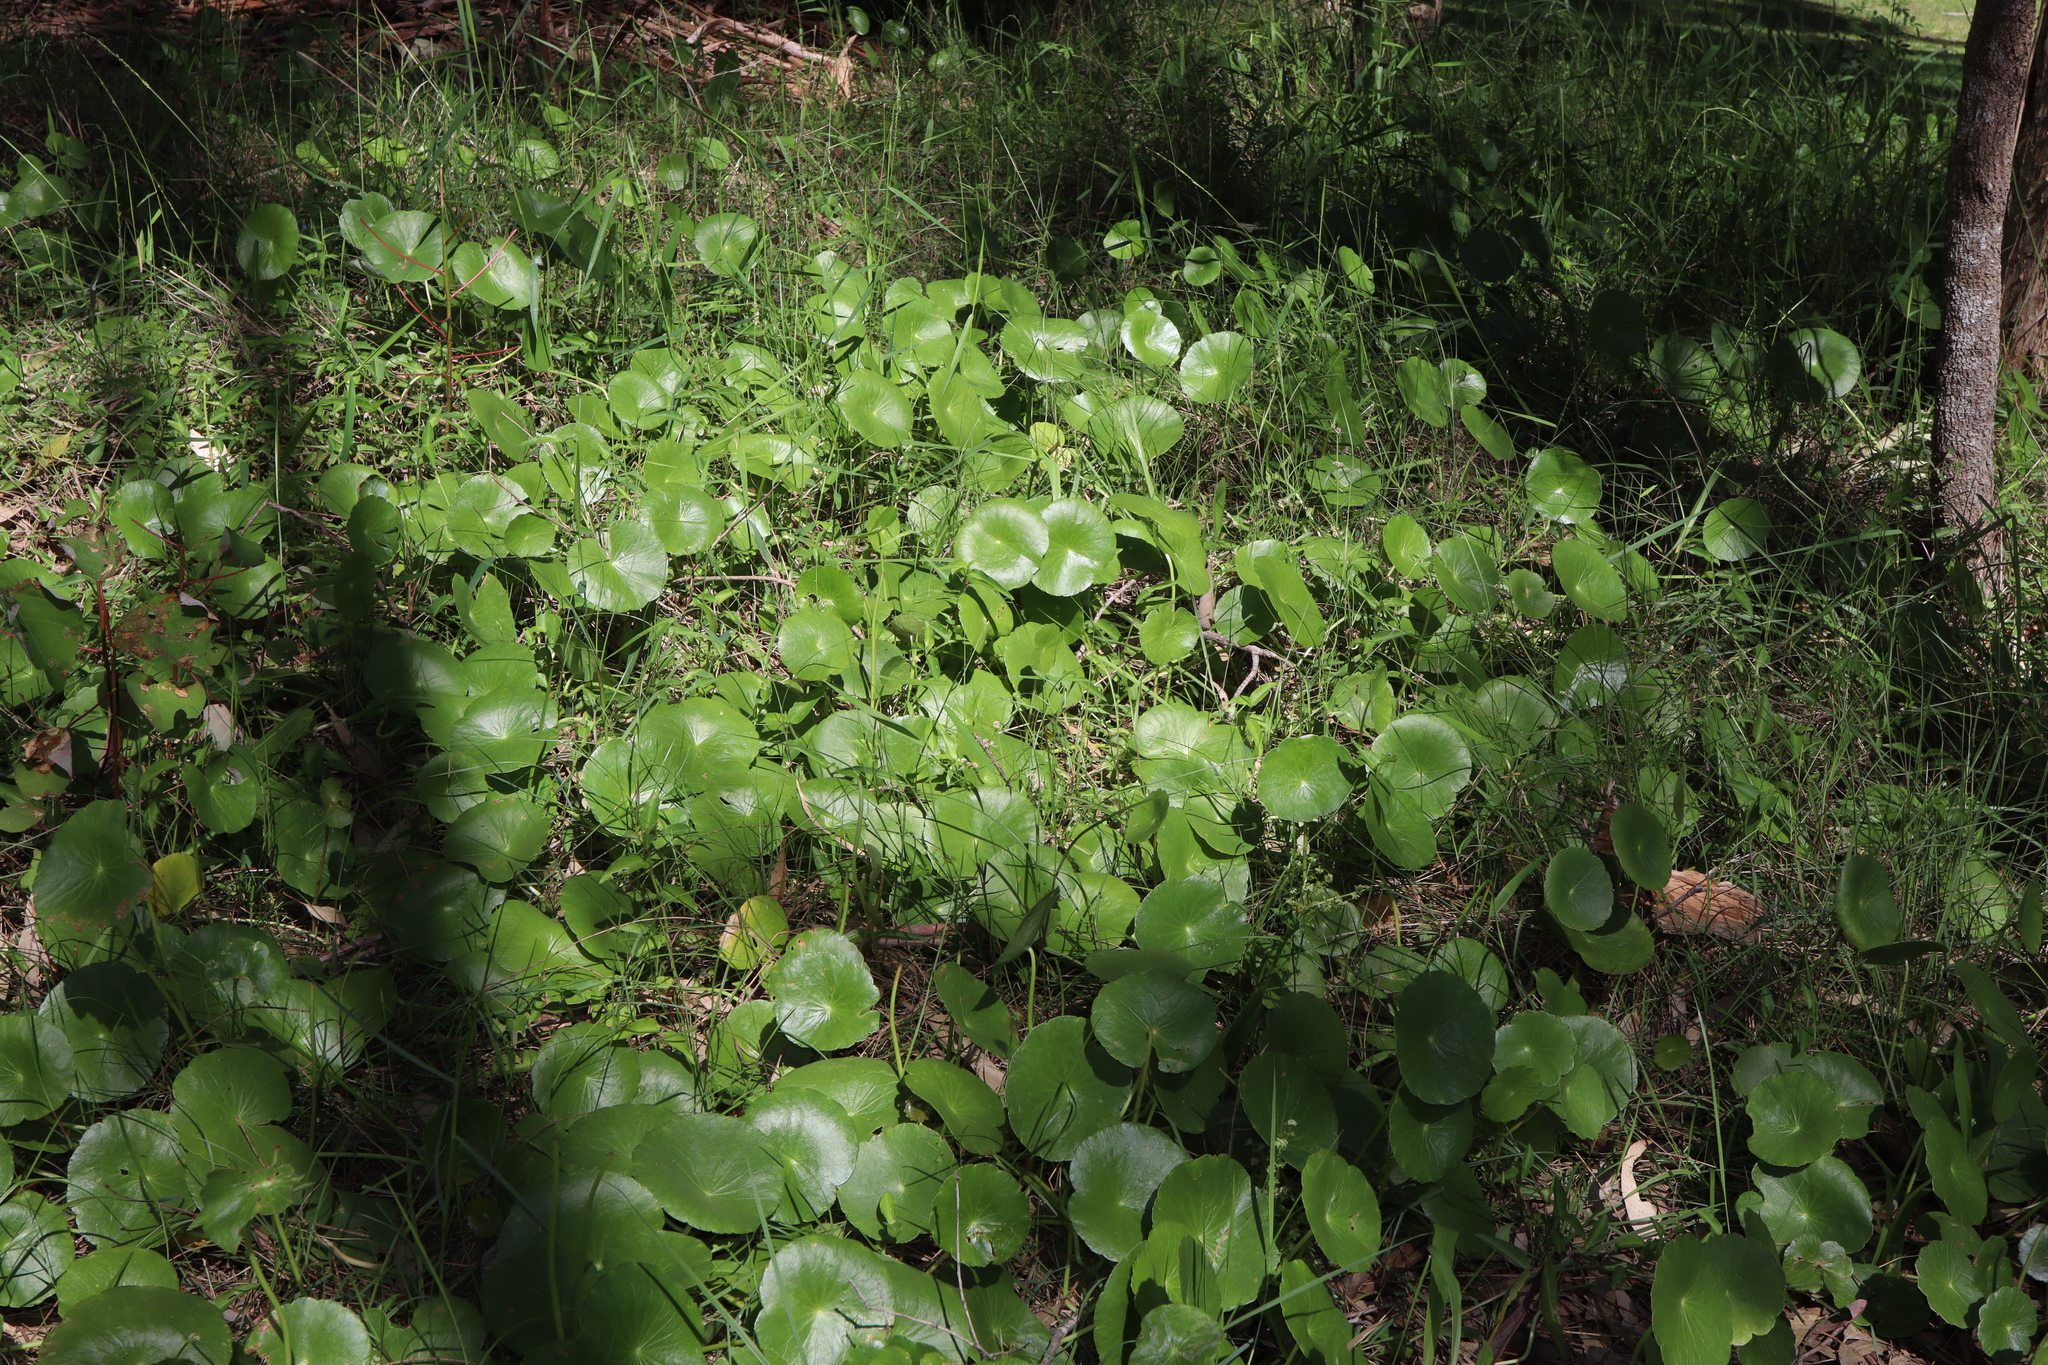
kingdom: Plantae
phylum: Tracheophyta
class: Magnoliopsida
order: Apiales
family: Araliaceae
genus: Hydrocotyle
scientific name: Hydrocotyle bonariensis
